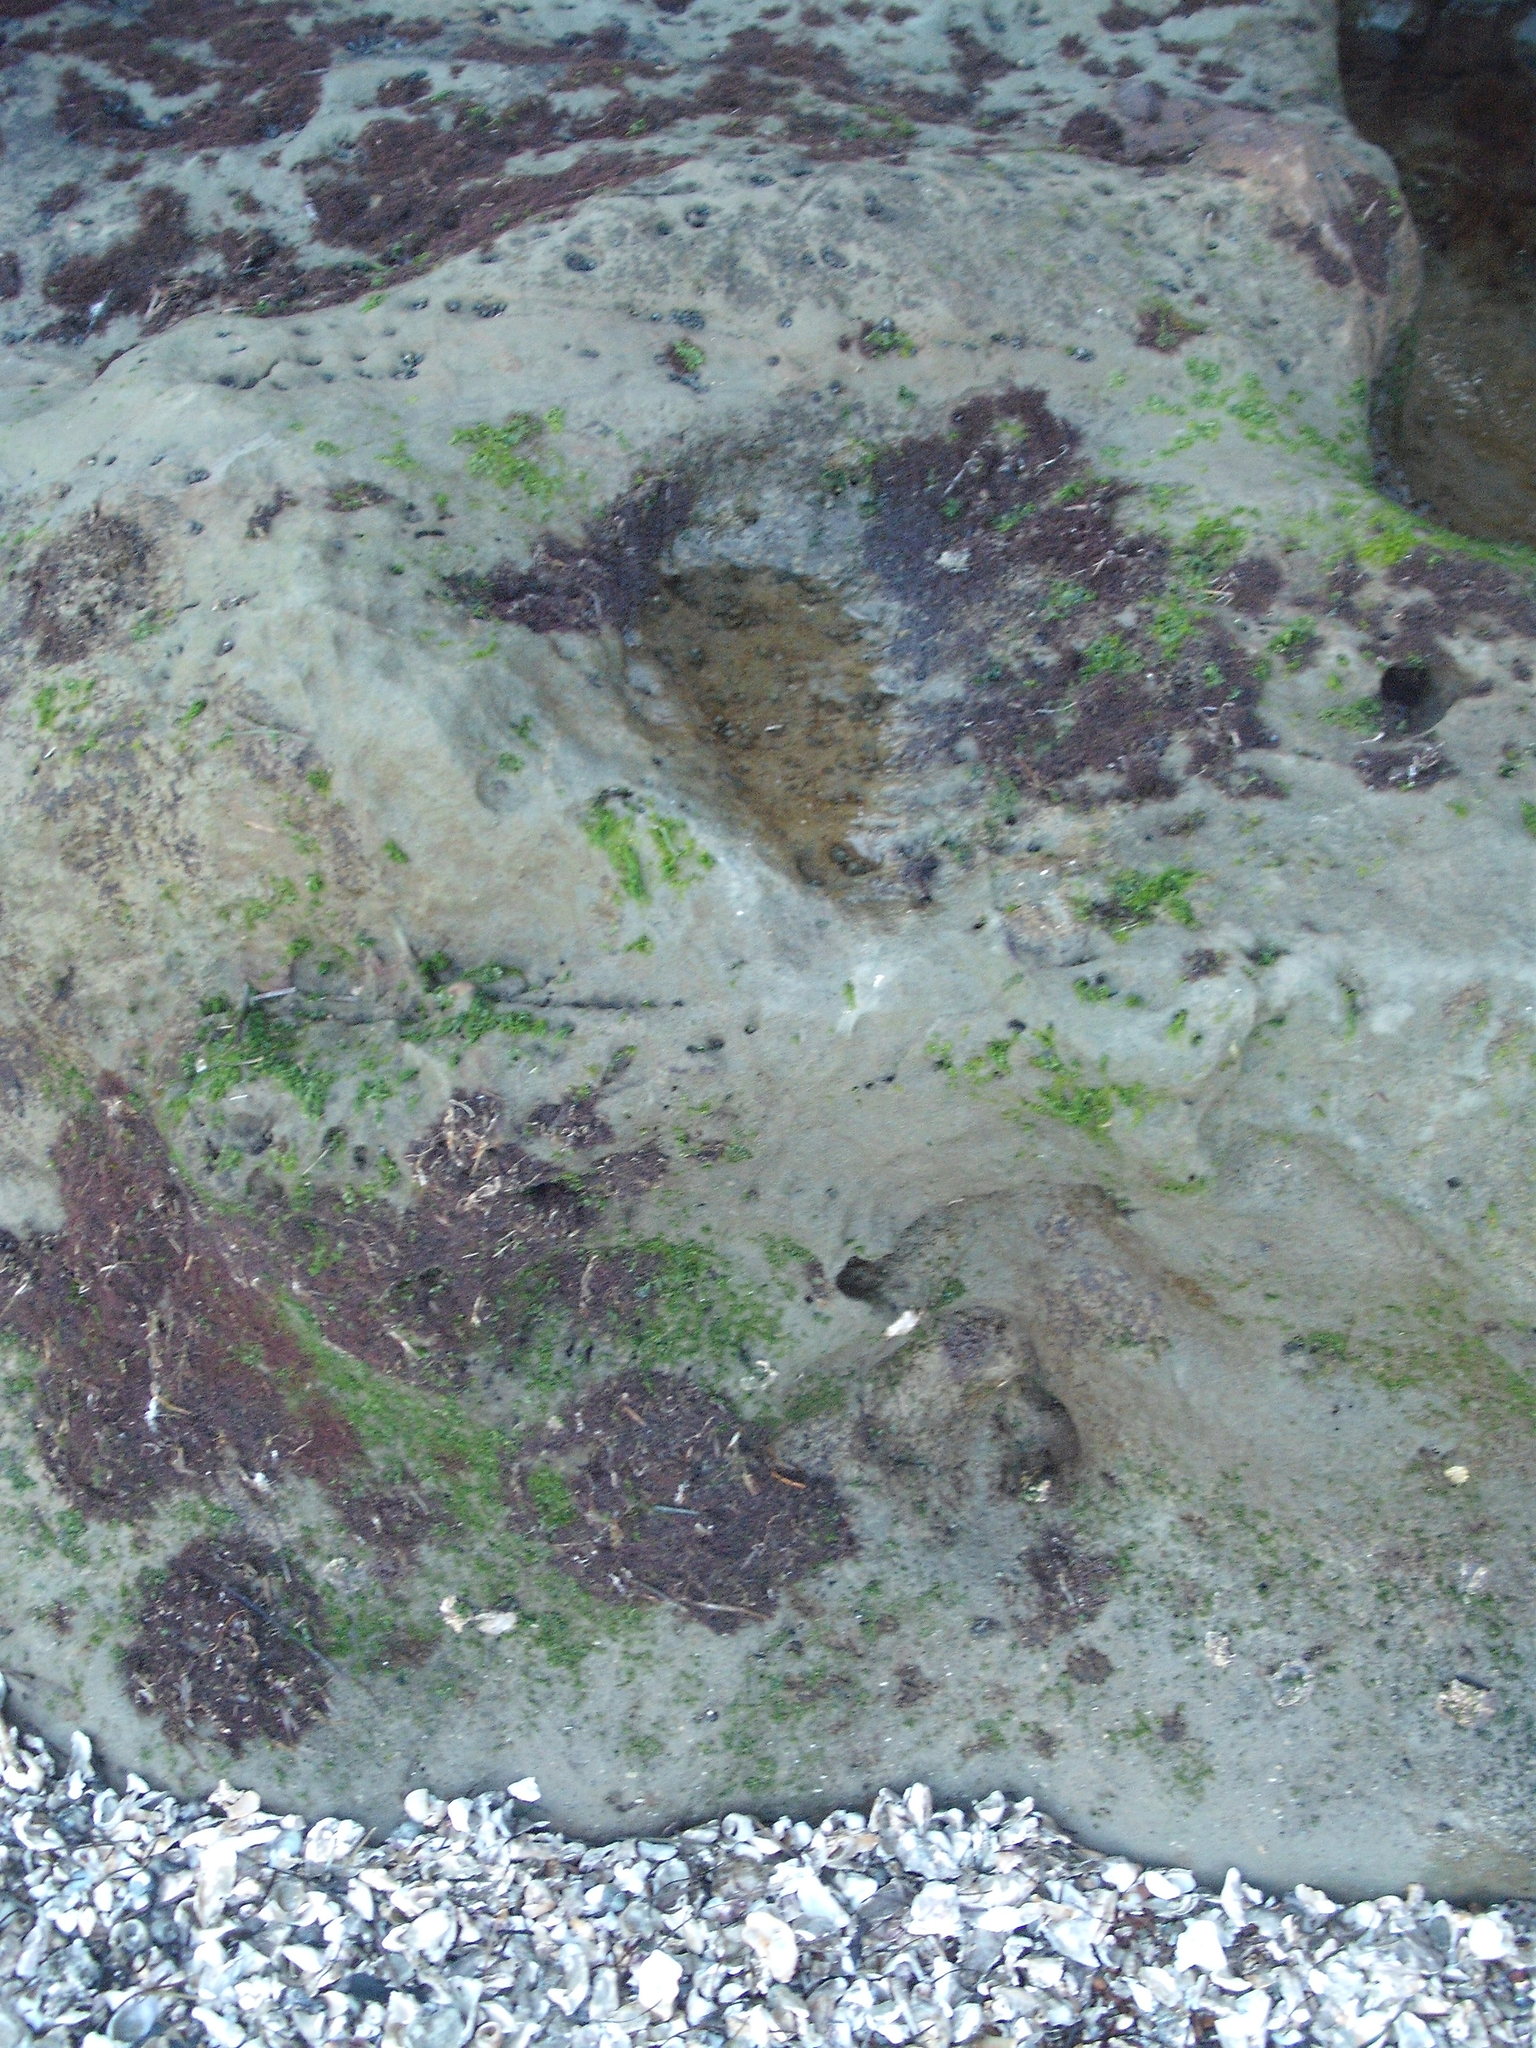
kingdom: Animalia
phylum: Cnidaria
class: Anthozoa
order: Actiniaria
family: Diadumenidae
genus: Diadumene
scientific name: Diadumene lineata
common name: Orange-striped anemone
